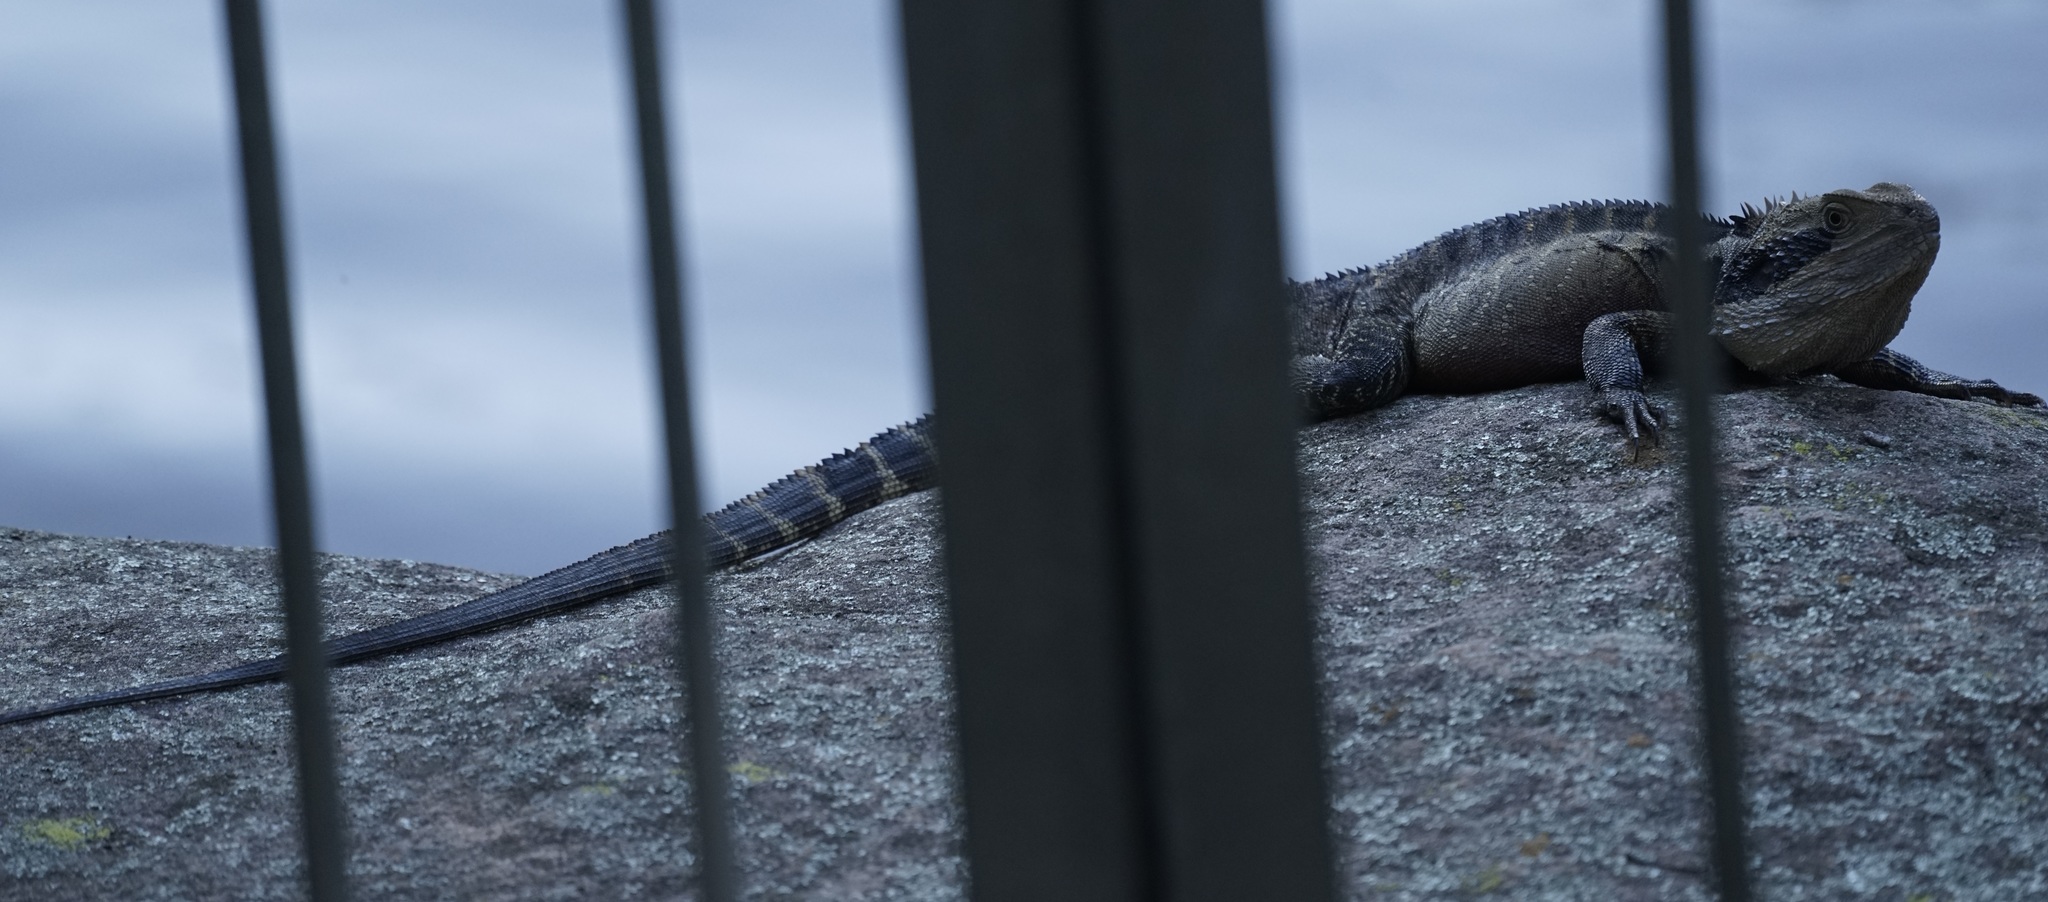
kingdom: Animalia
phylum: Chordata
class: Squamata
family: Agamidae
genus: Intellagama
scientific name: Intellagama lesueurii
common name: Eastern water dragon
